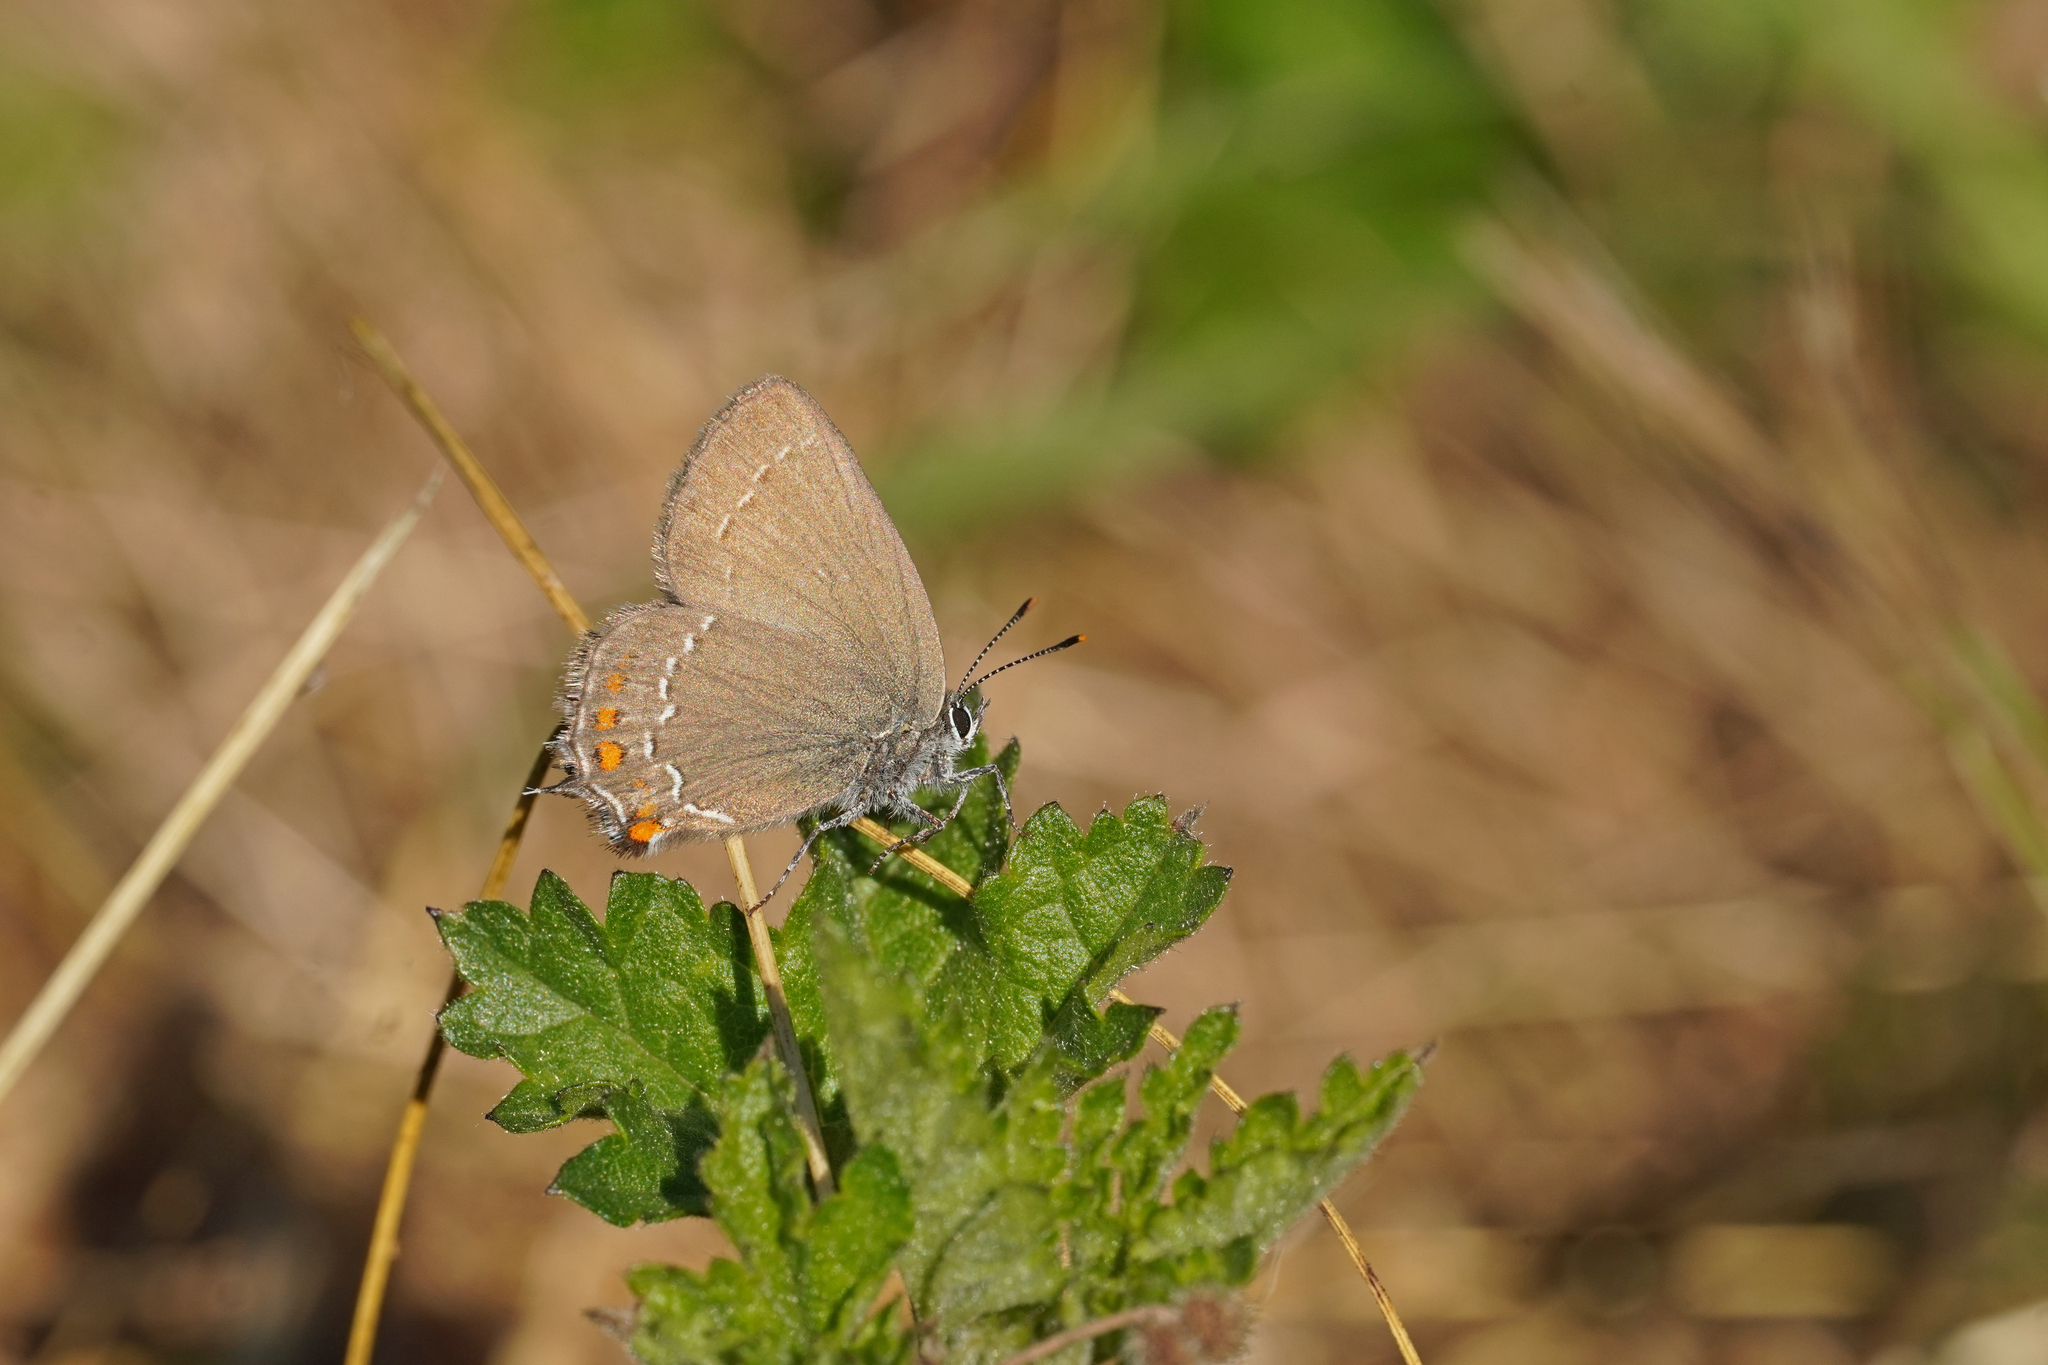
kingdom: Animalia
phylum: Arthropoda
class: Insecta
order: Lepidoptera
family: Lycaenidae
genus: Nordmannia
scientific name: Nordmannia ilicis
